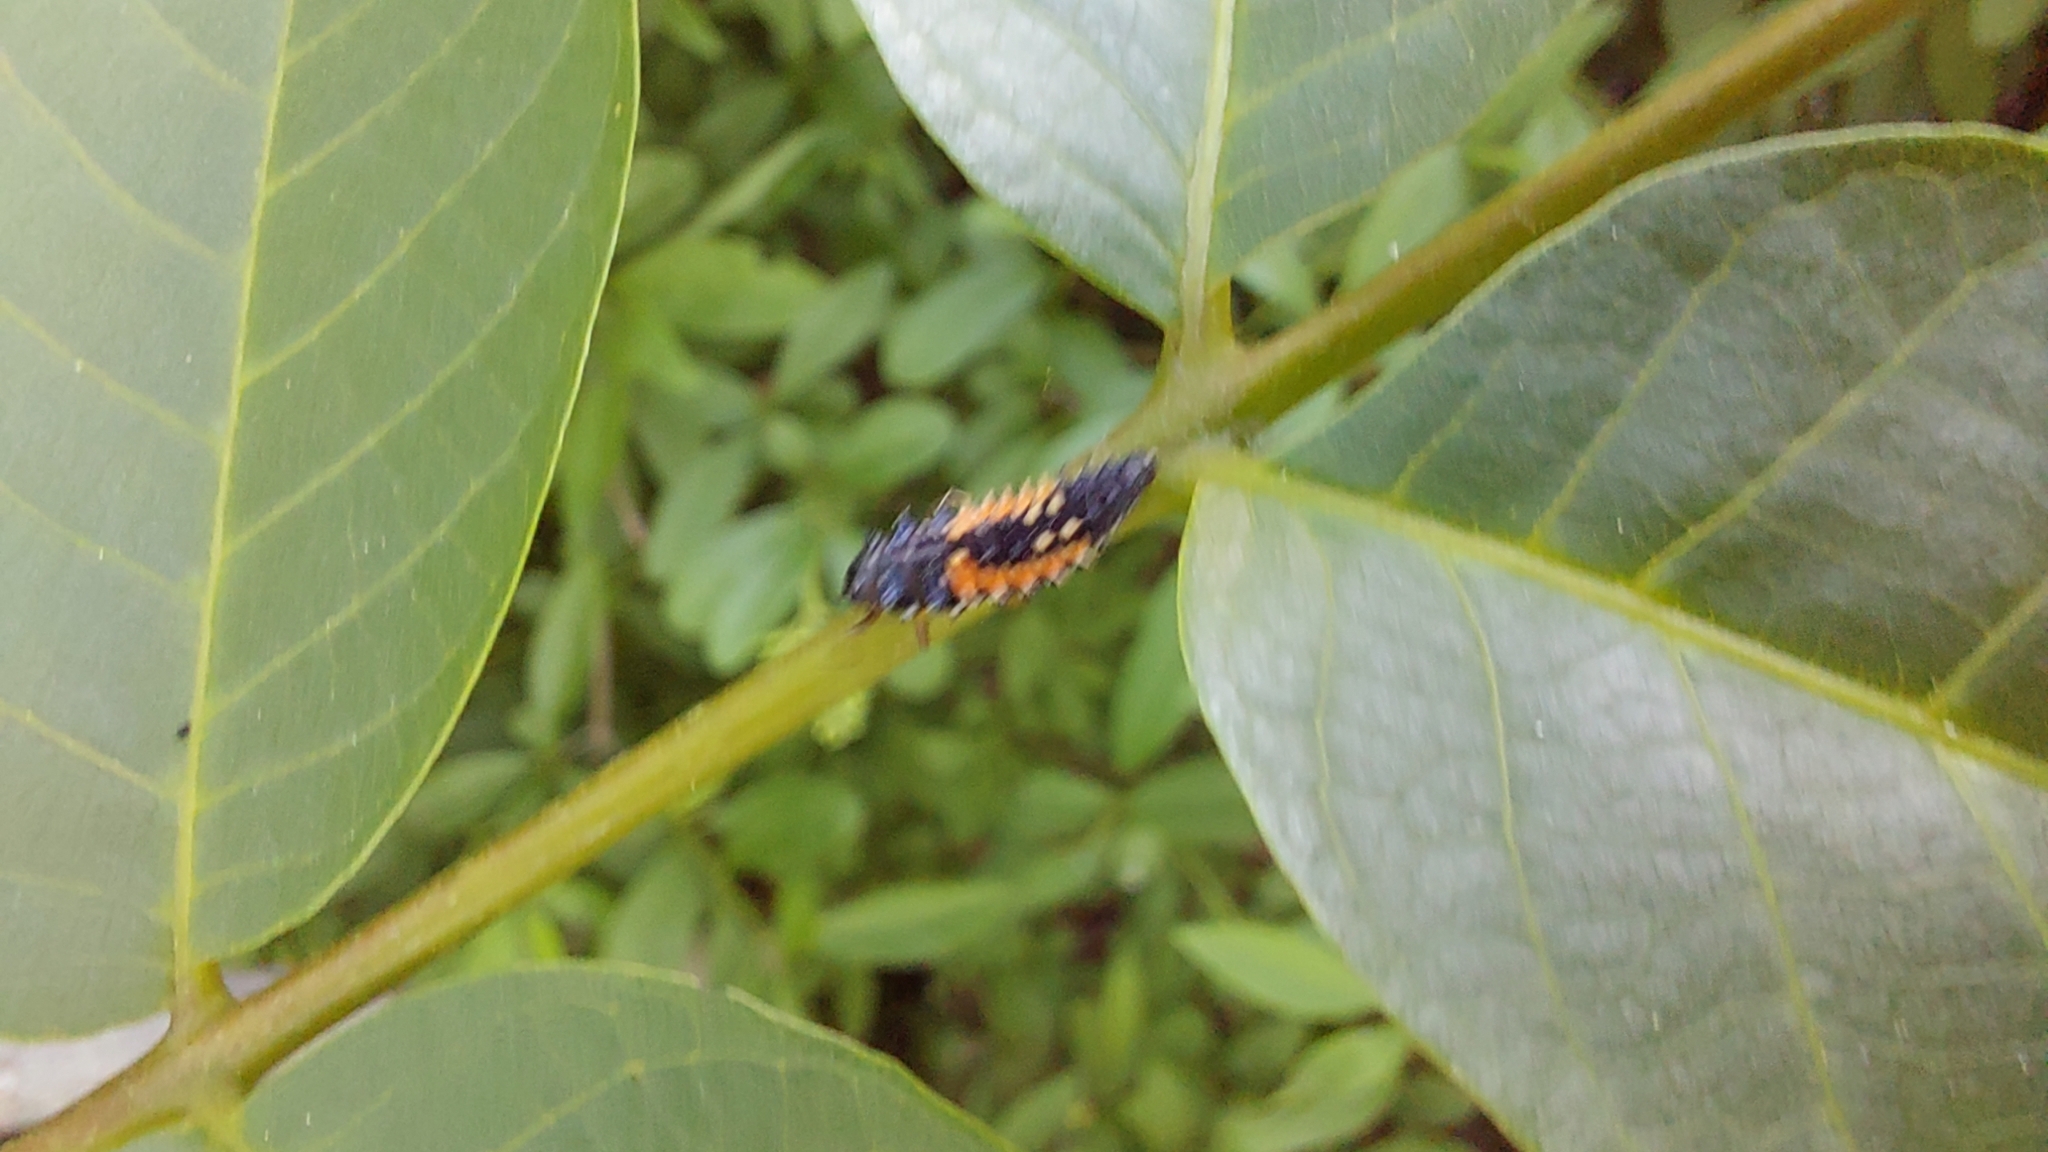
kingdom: Animalia
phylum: Arthropoda
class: Insecta
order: Coleoptera
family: Coccinellidae
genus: Harmonia
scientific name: Harmonia axyridis
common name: Harlequin ladybird
